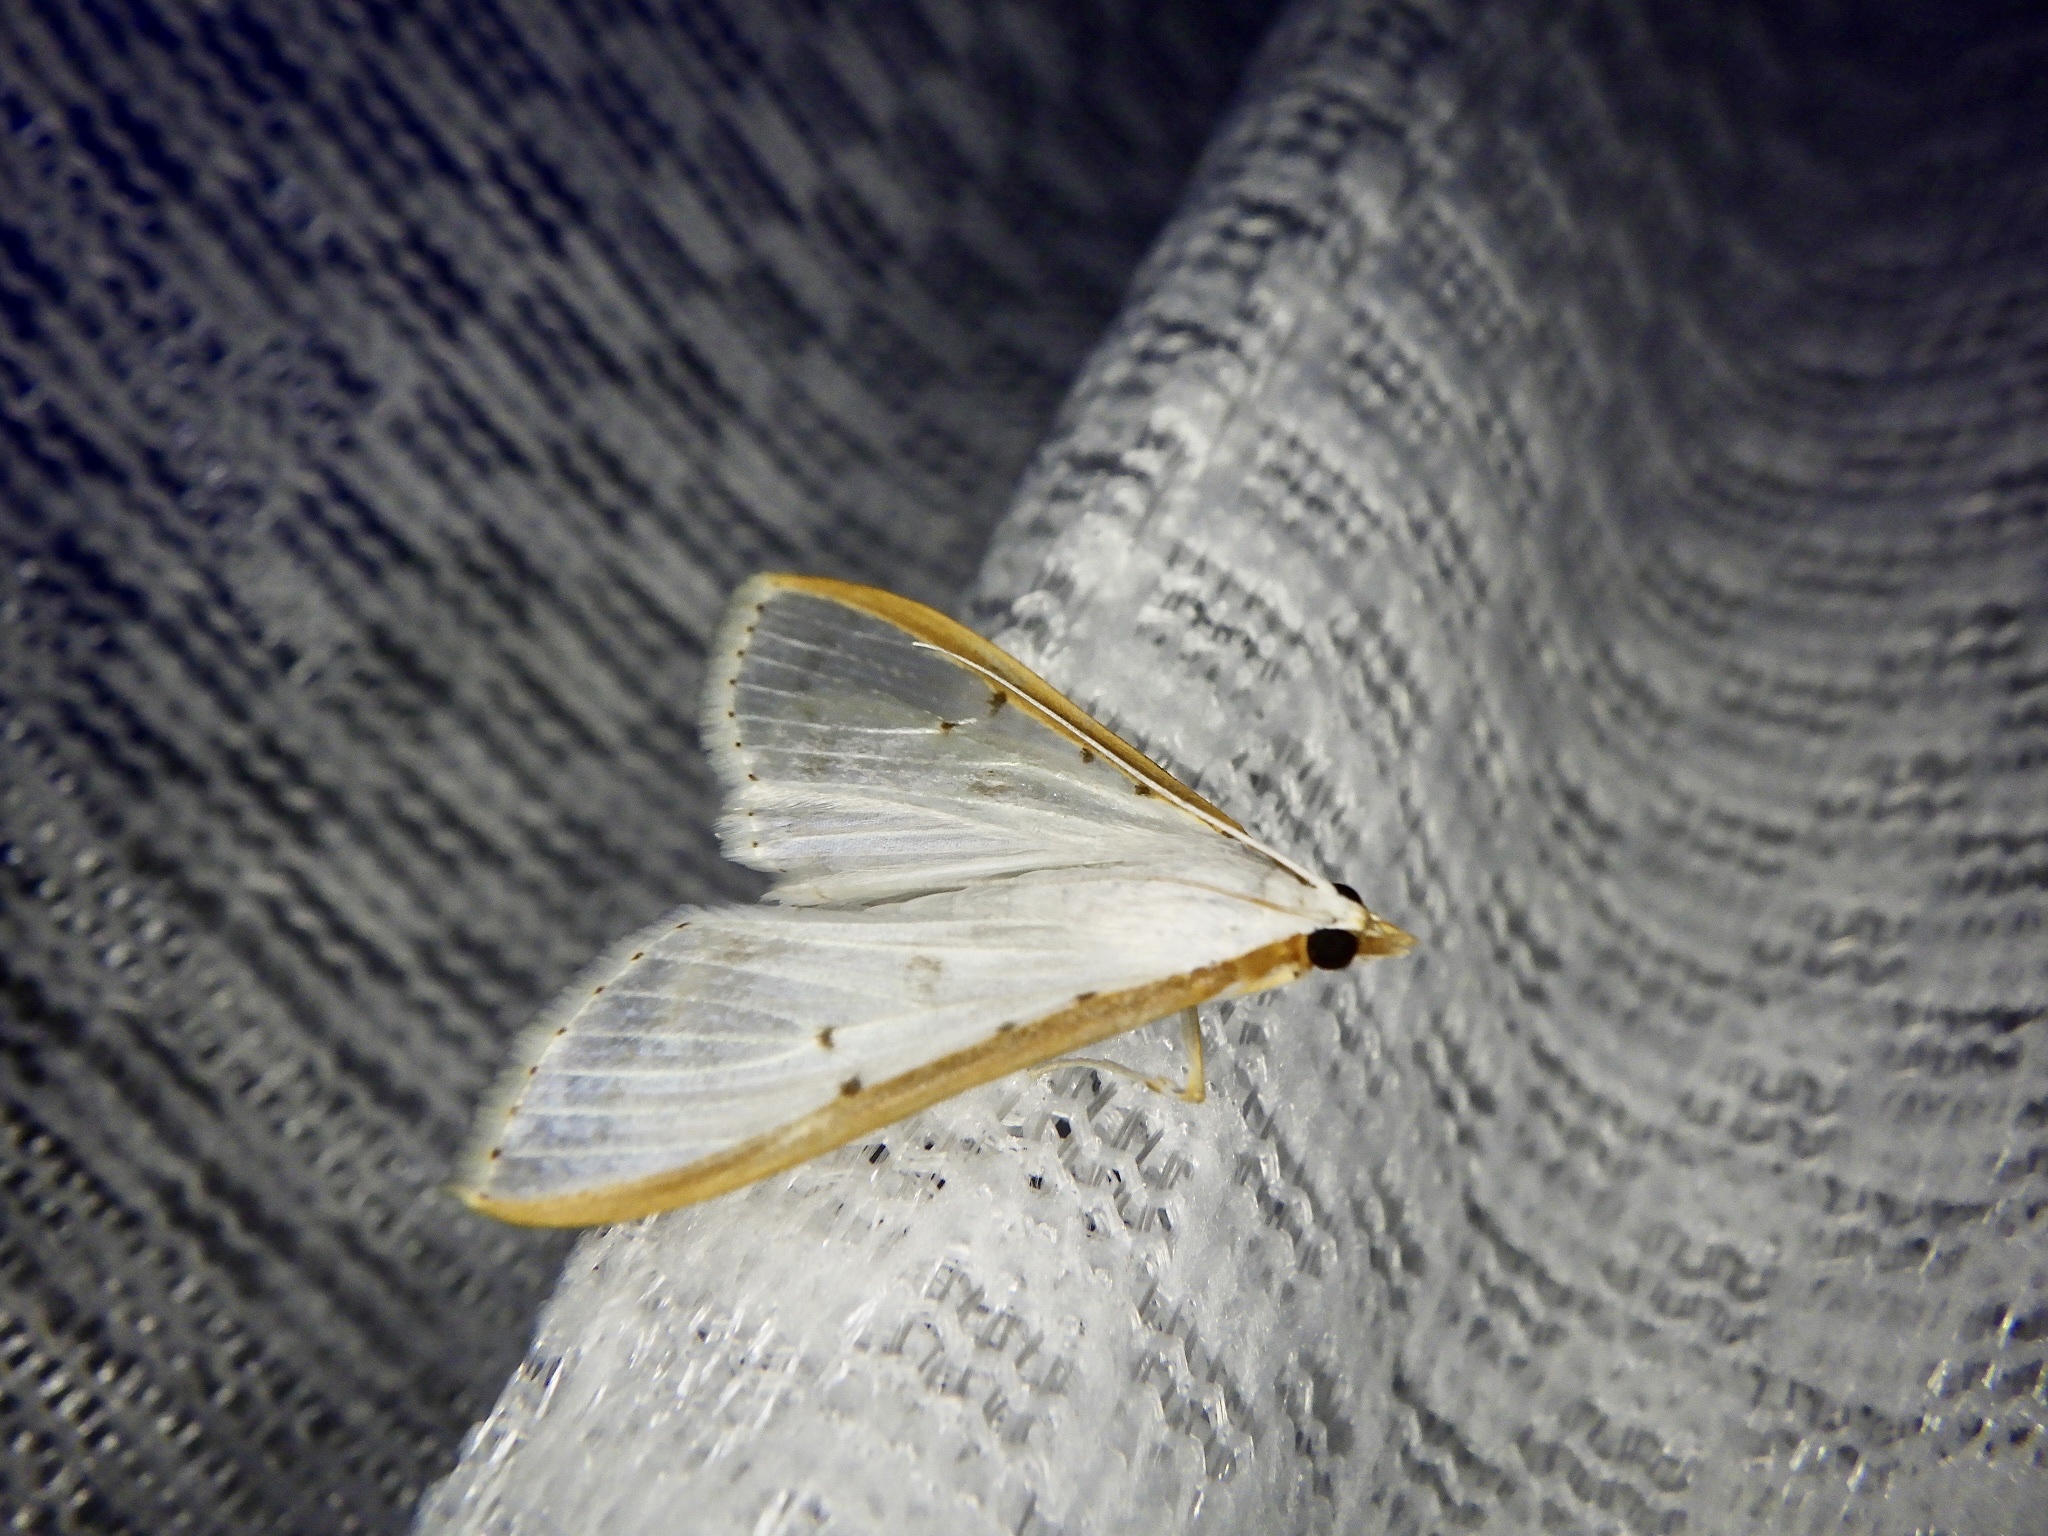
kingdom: Animalia
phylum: Arthropoda
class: Insecta
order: Lepidoptera
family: Crambidae
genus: Palpita
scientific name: Palpita nigropunctalis
